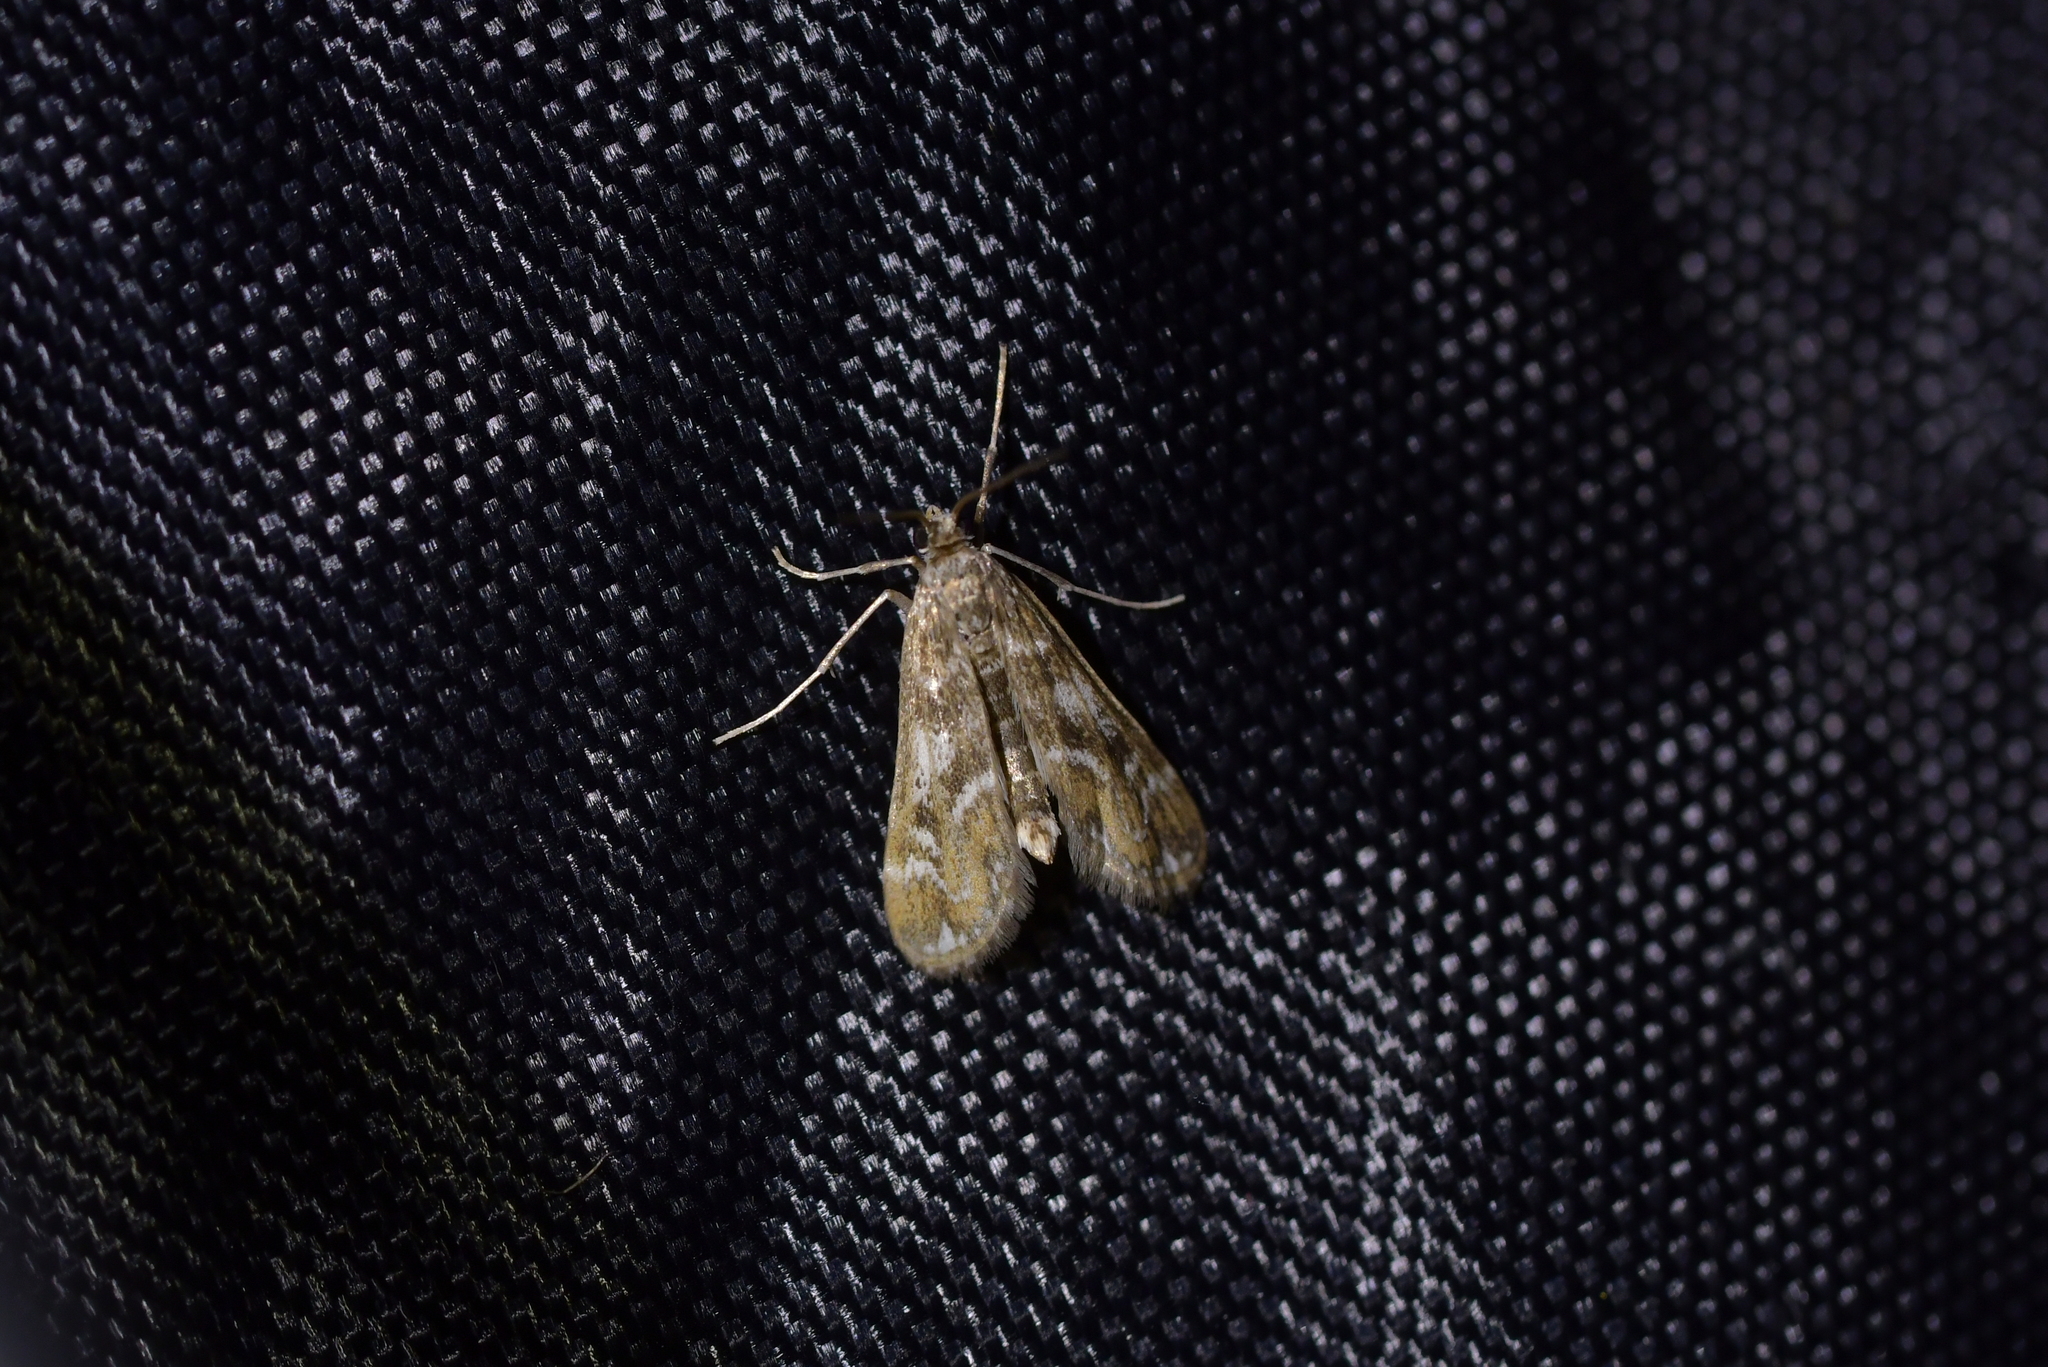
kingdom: Animalia
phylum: Arthropoda
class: Insecta
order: Lepidoptera
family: Crambidae
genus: Hygraula
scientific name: Hygraula nitens
